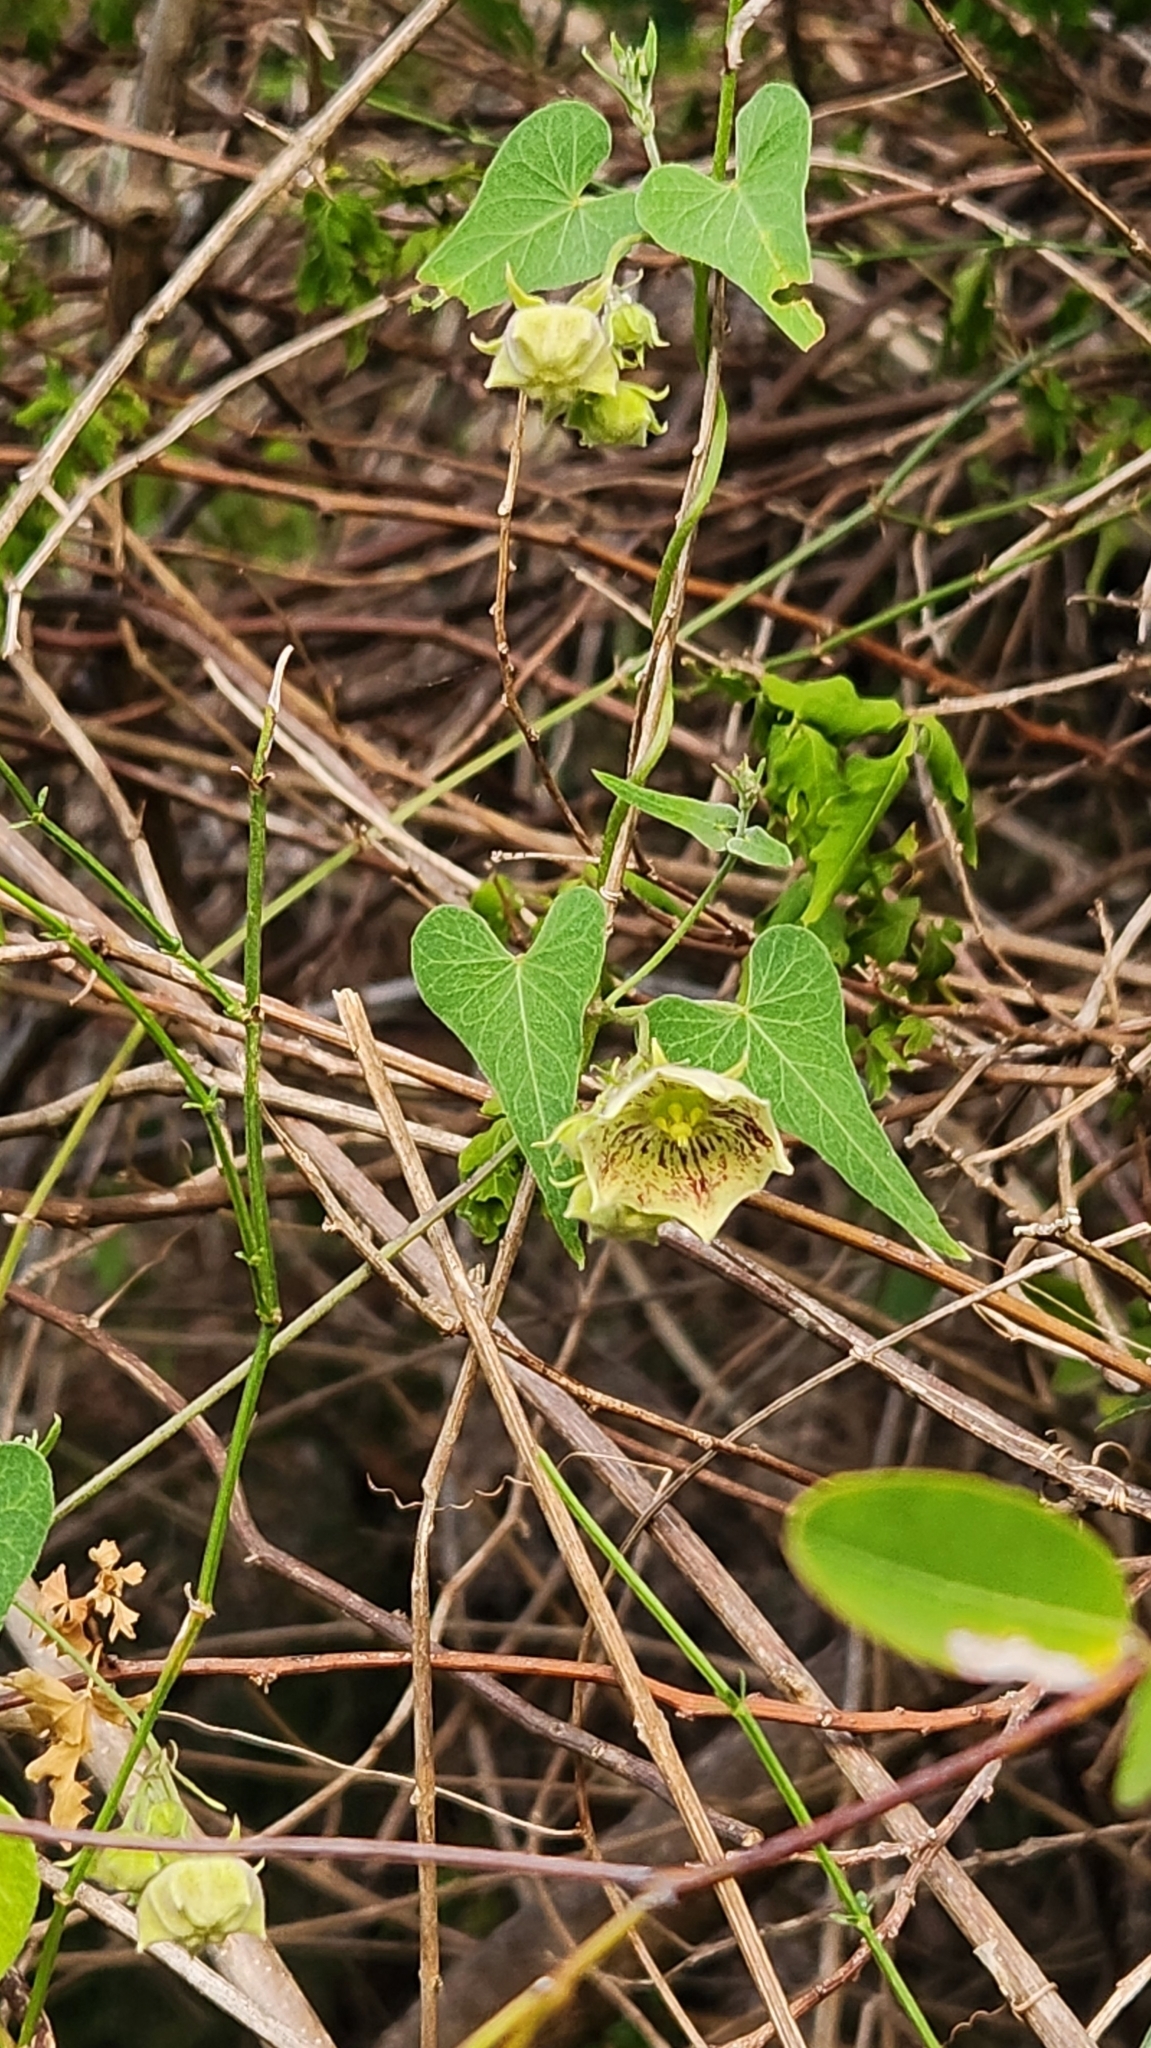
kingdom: Plantae
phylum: Tracheophyta
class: Magnoliopsida
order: Gentianales
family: Apocynaceae
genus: Philibertia
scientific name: Philibertia gilliesii
